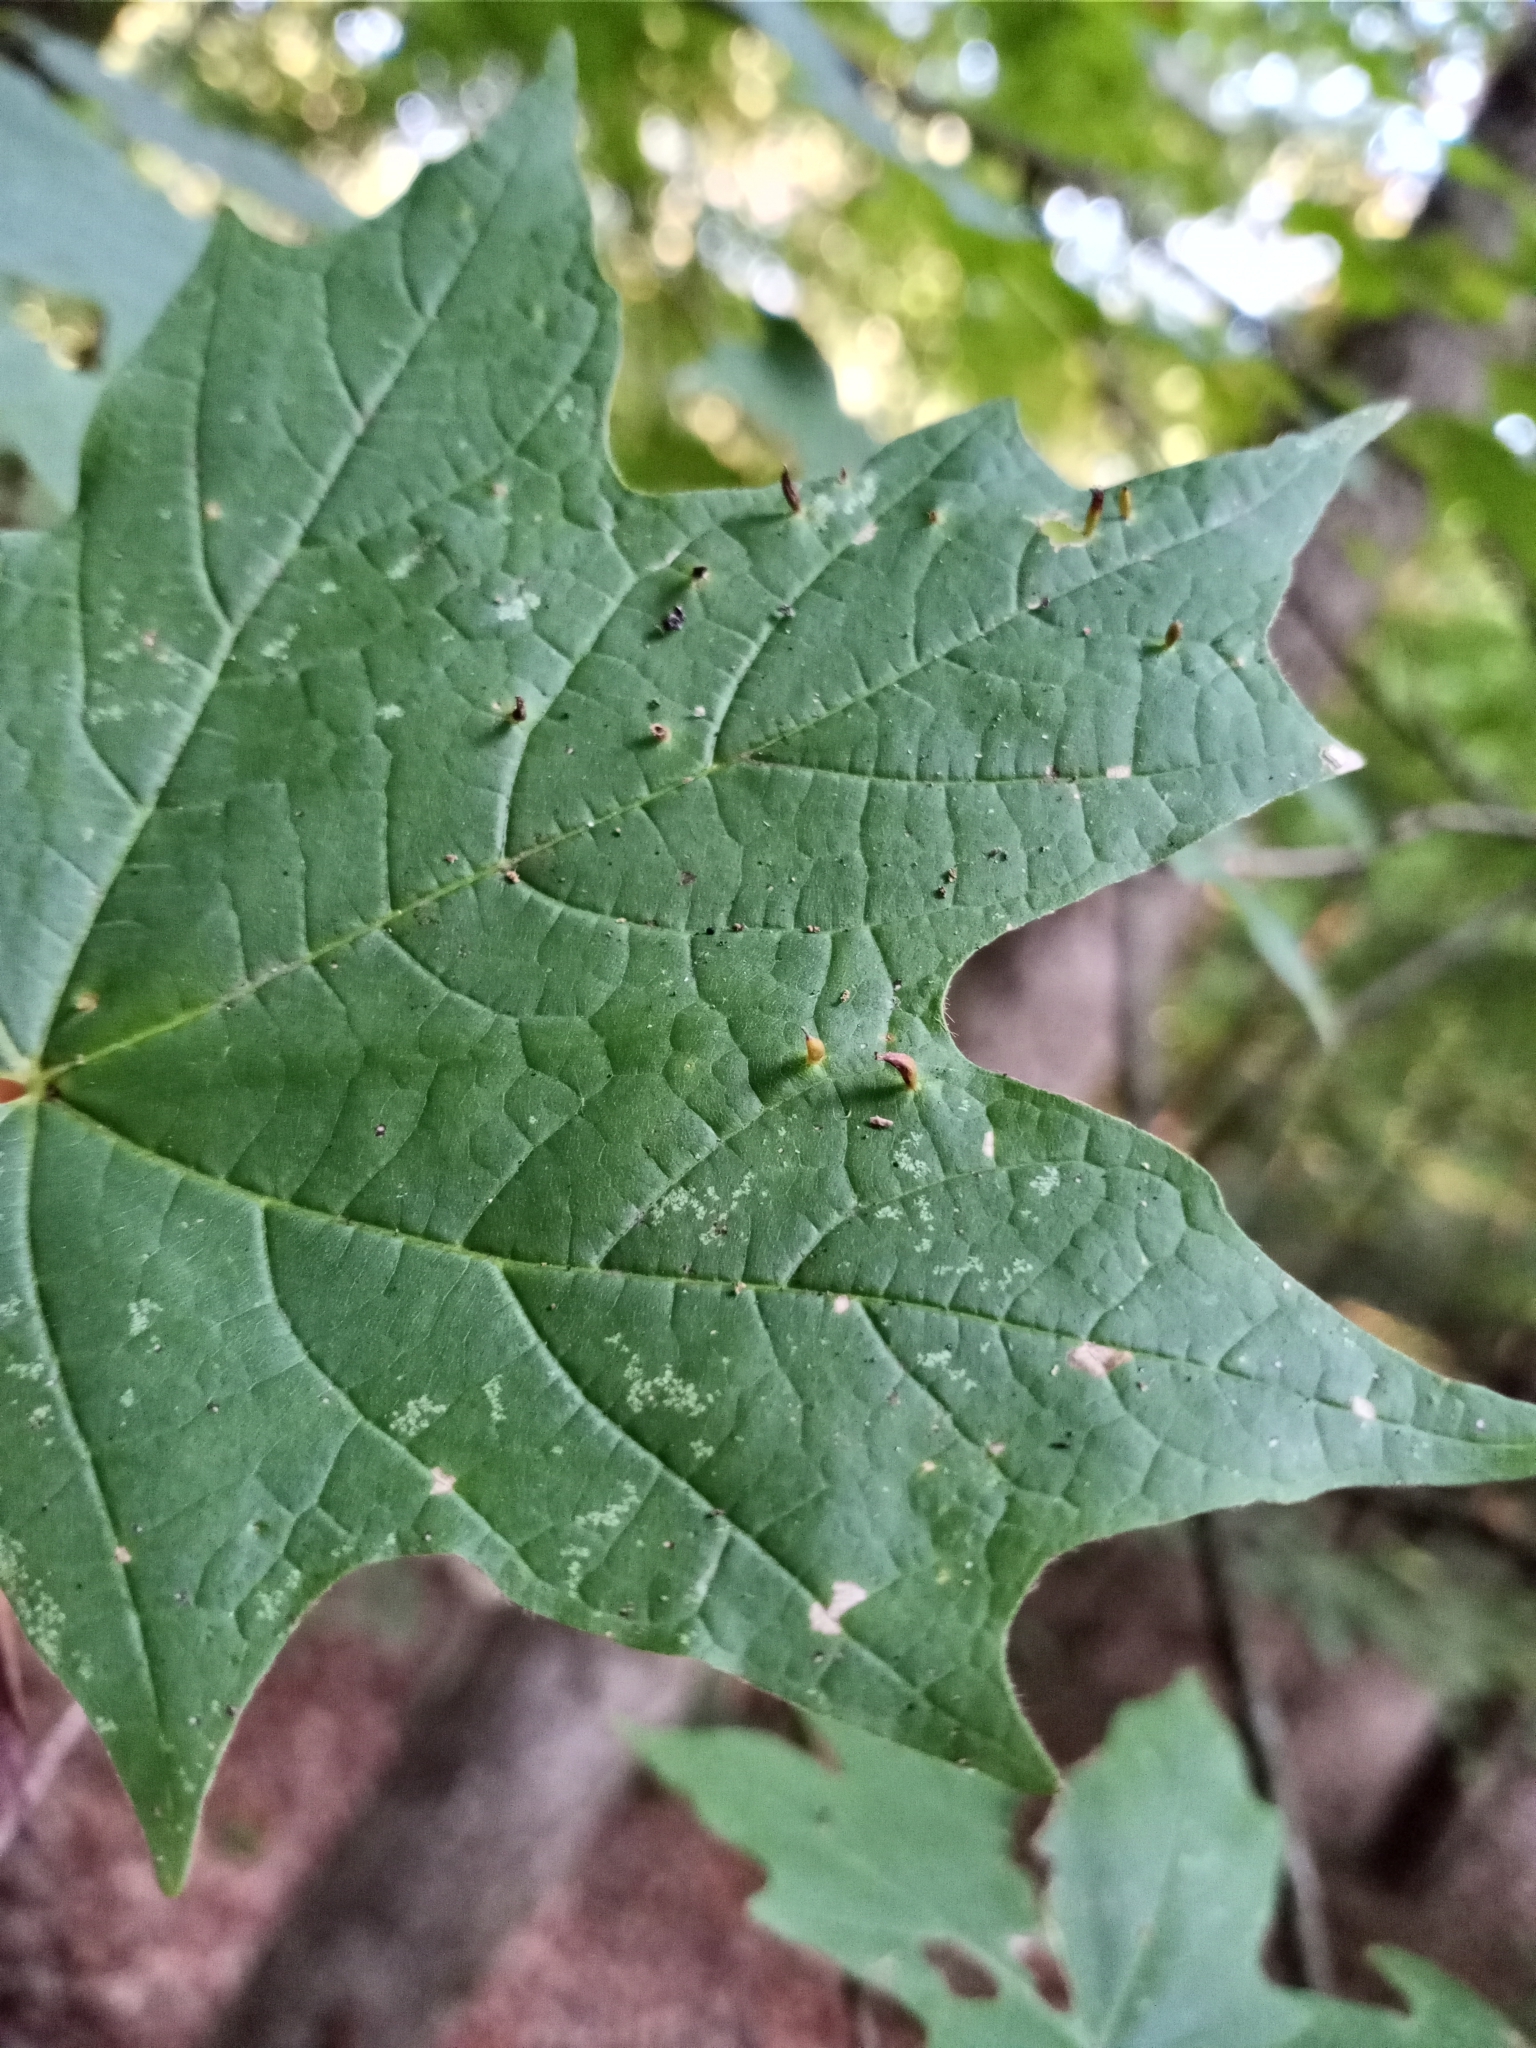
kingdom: Animalia
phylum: Arthropoda
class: Arachnida
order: Trombidiformes
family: Eriophyidae
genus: Vasates
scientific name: Vasates aceriscrumena
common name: Maple spindle gall mite
